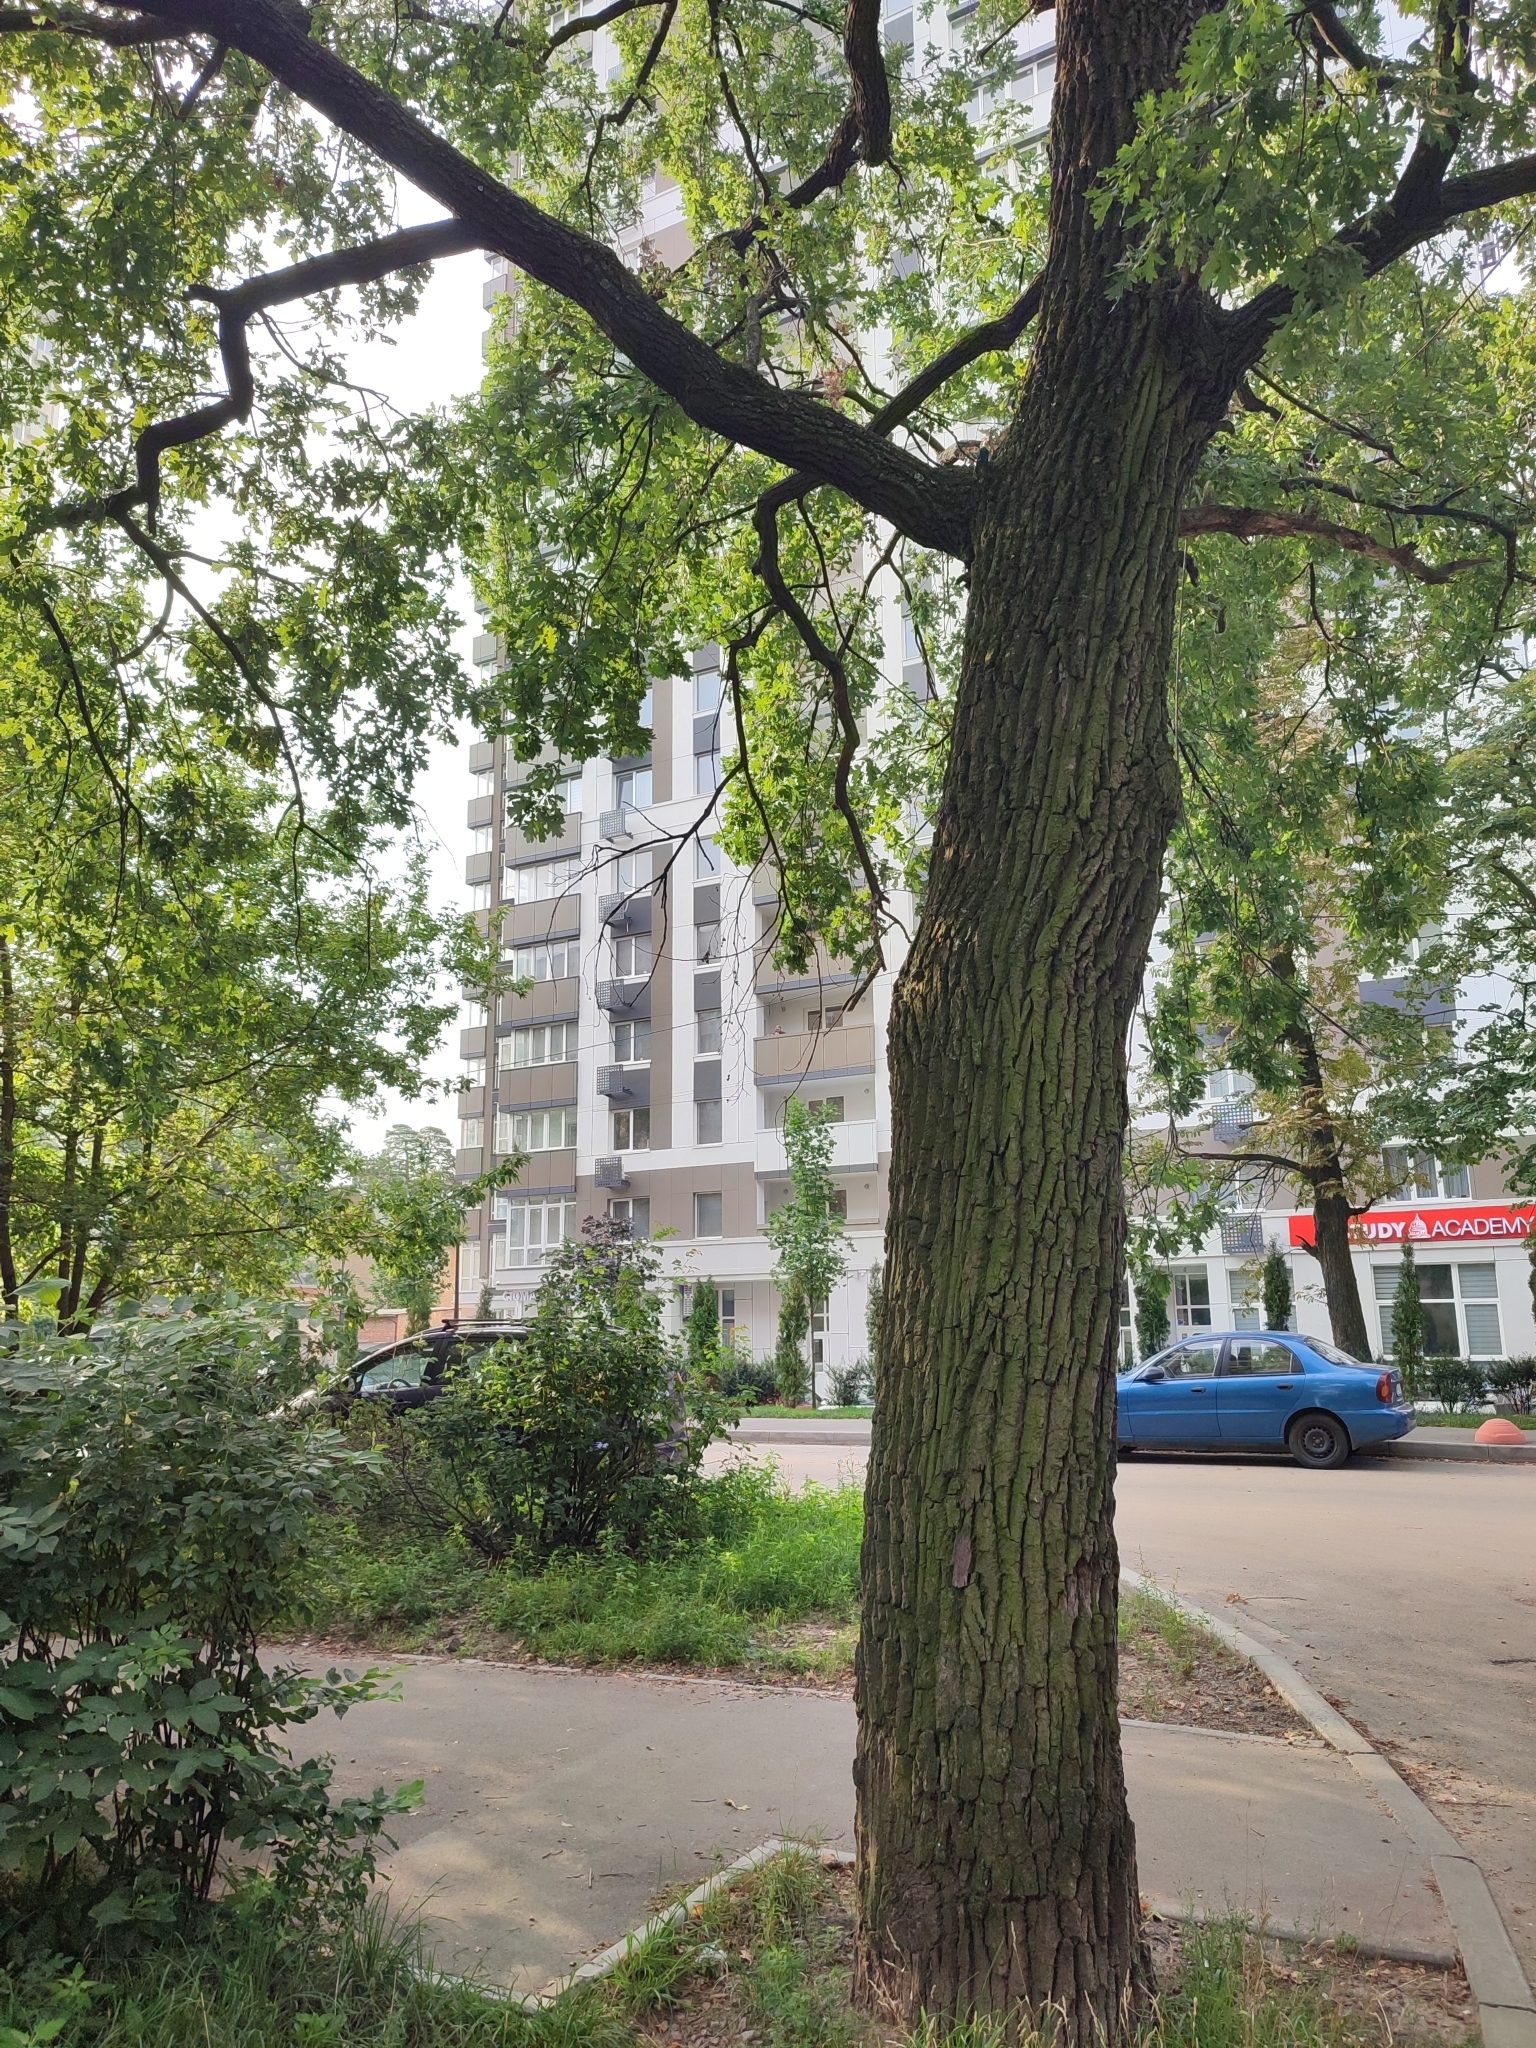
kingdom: Plantae
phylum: Tracheophyta
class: Magnoliopsida
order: Fagales
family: Fagaceae
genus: Quercus
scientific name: Quercus robur
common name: Pedunculate oak
